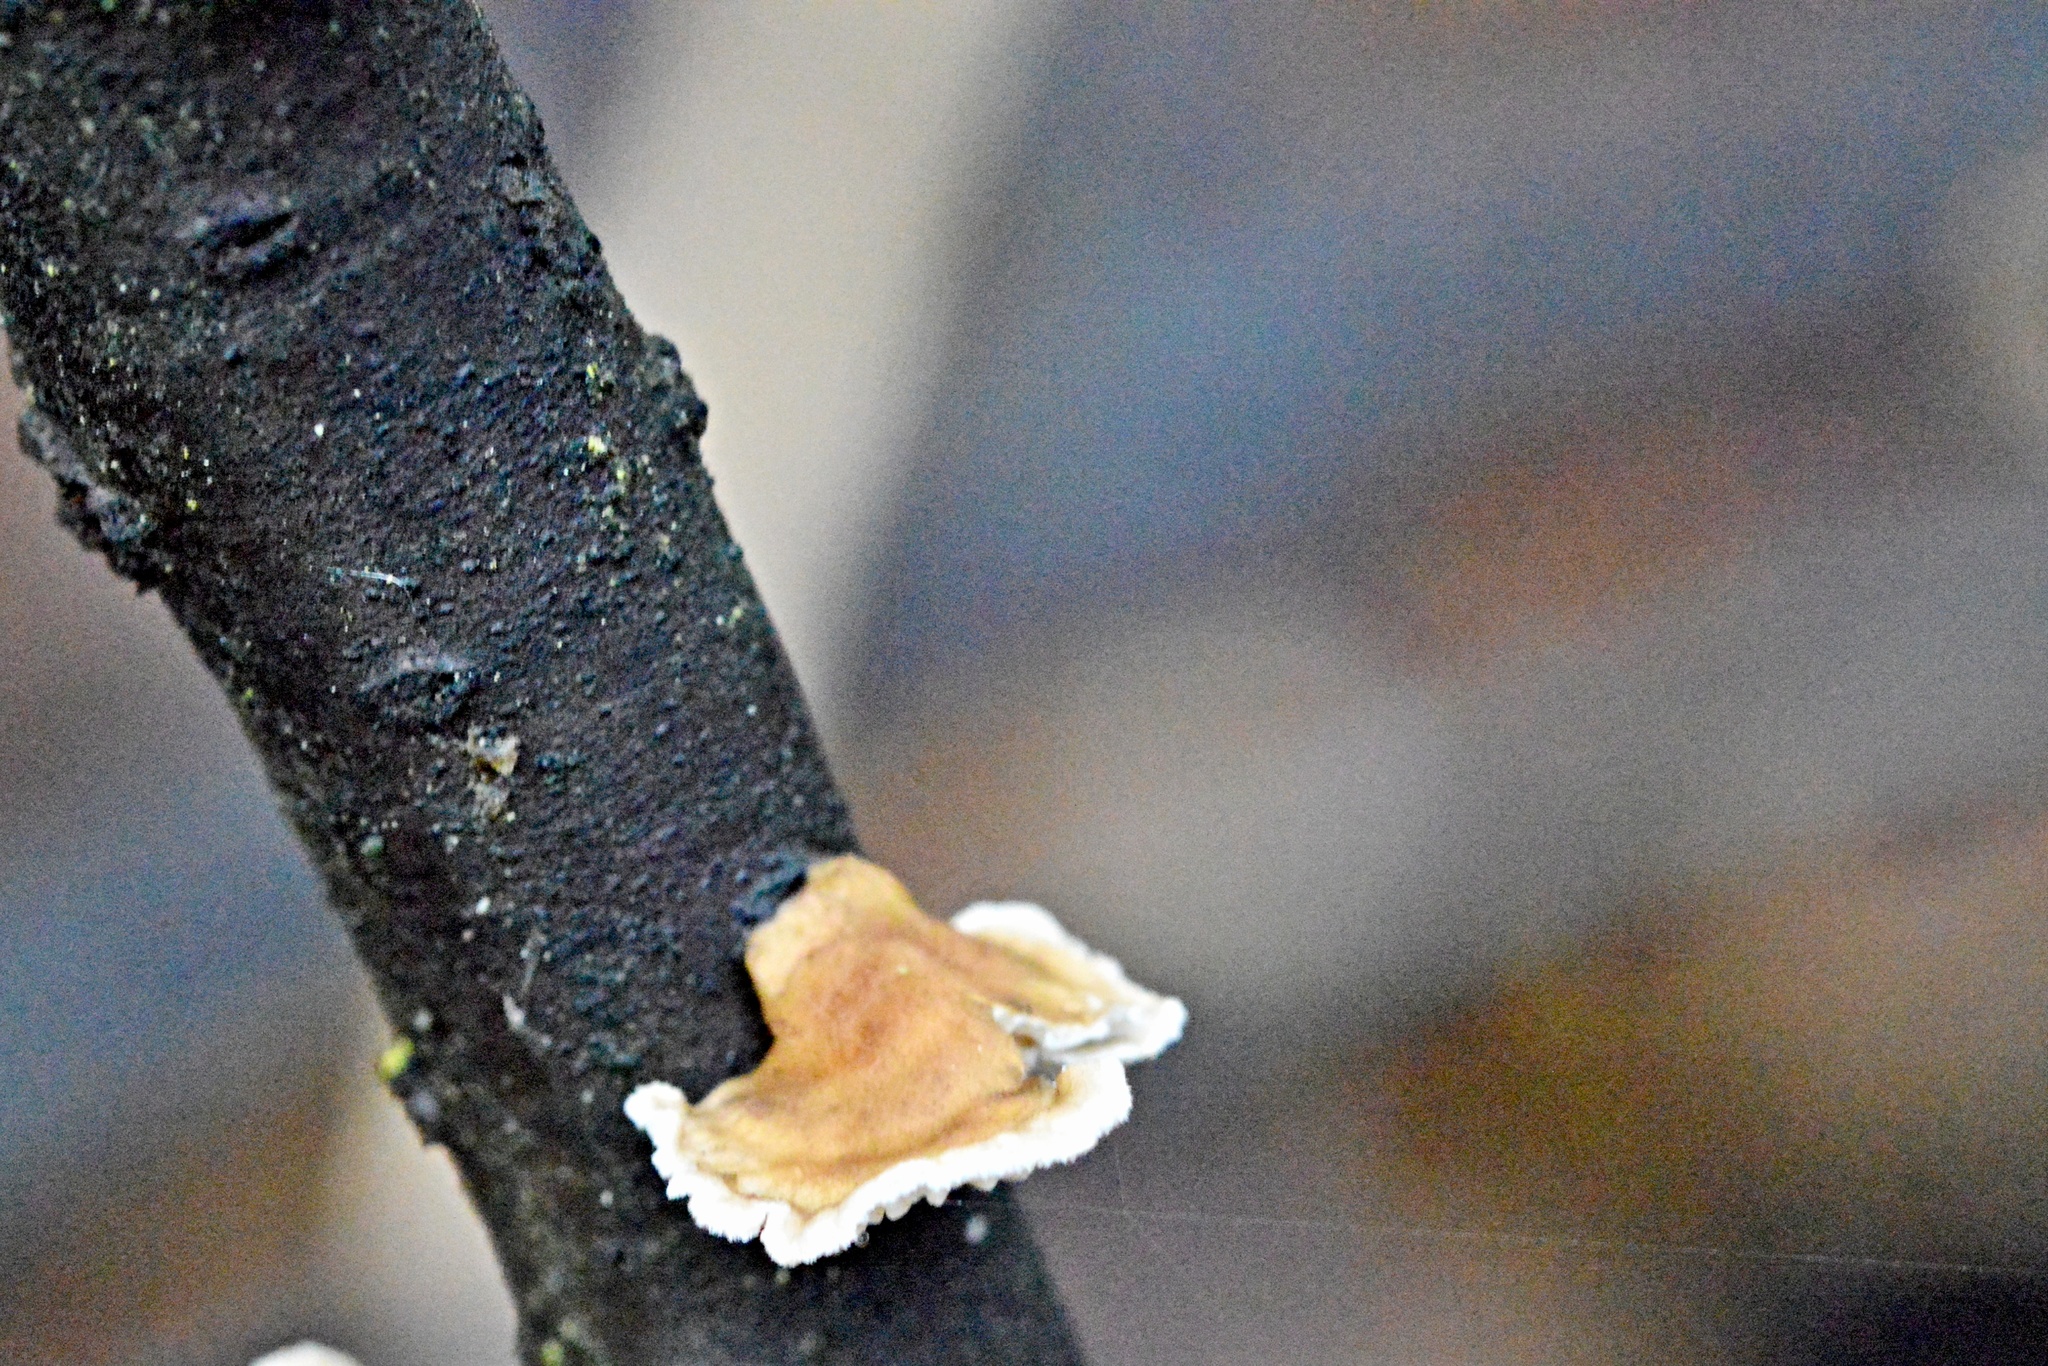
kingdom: Fungi
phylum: Basidiomycota
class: Agaricomycetes
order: Amylocorticiales
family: Amylocorticiaceae
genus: Plicaturopsis
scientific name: Plicaturopsis crispa
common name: Crimped gill
